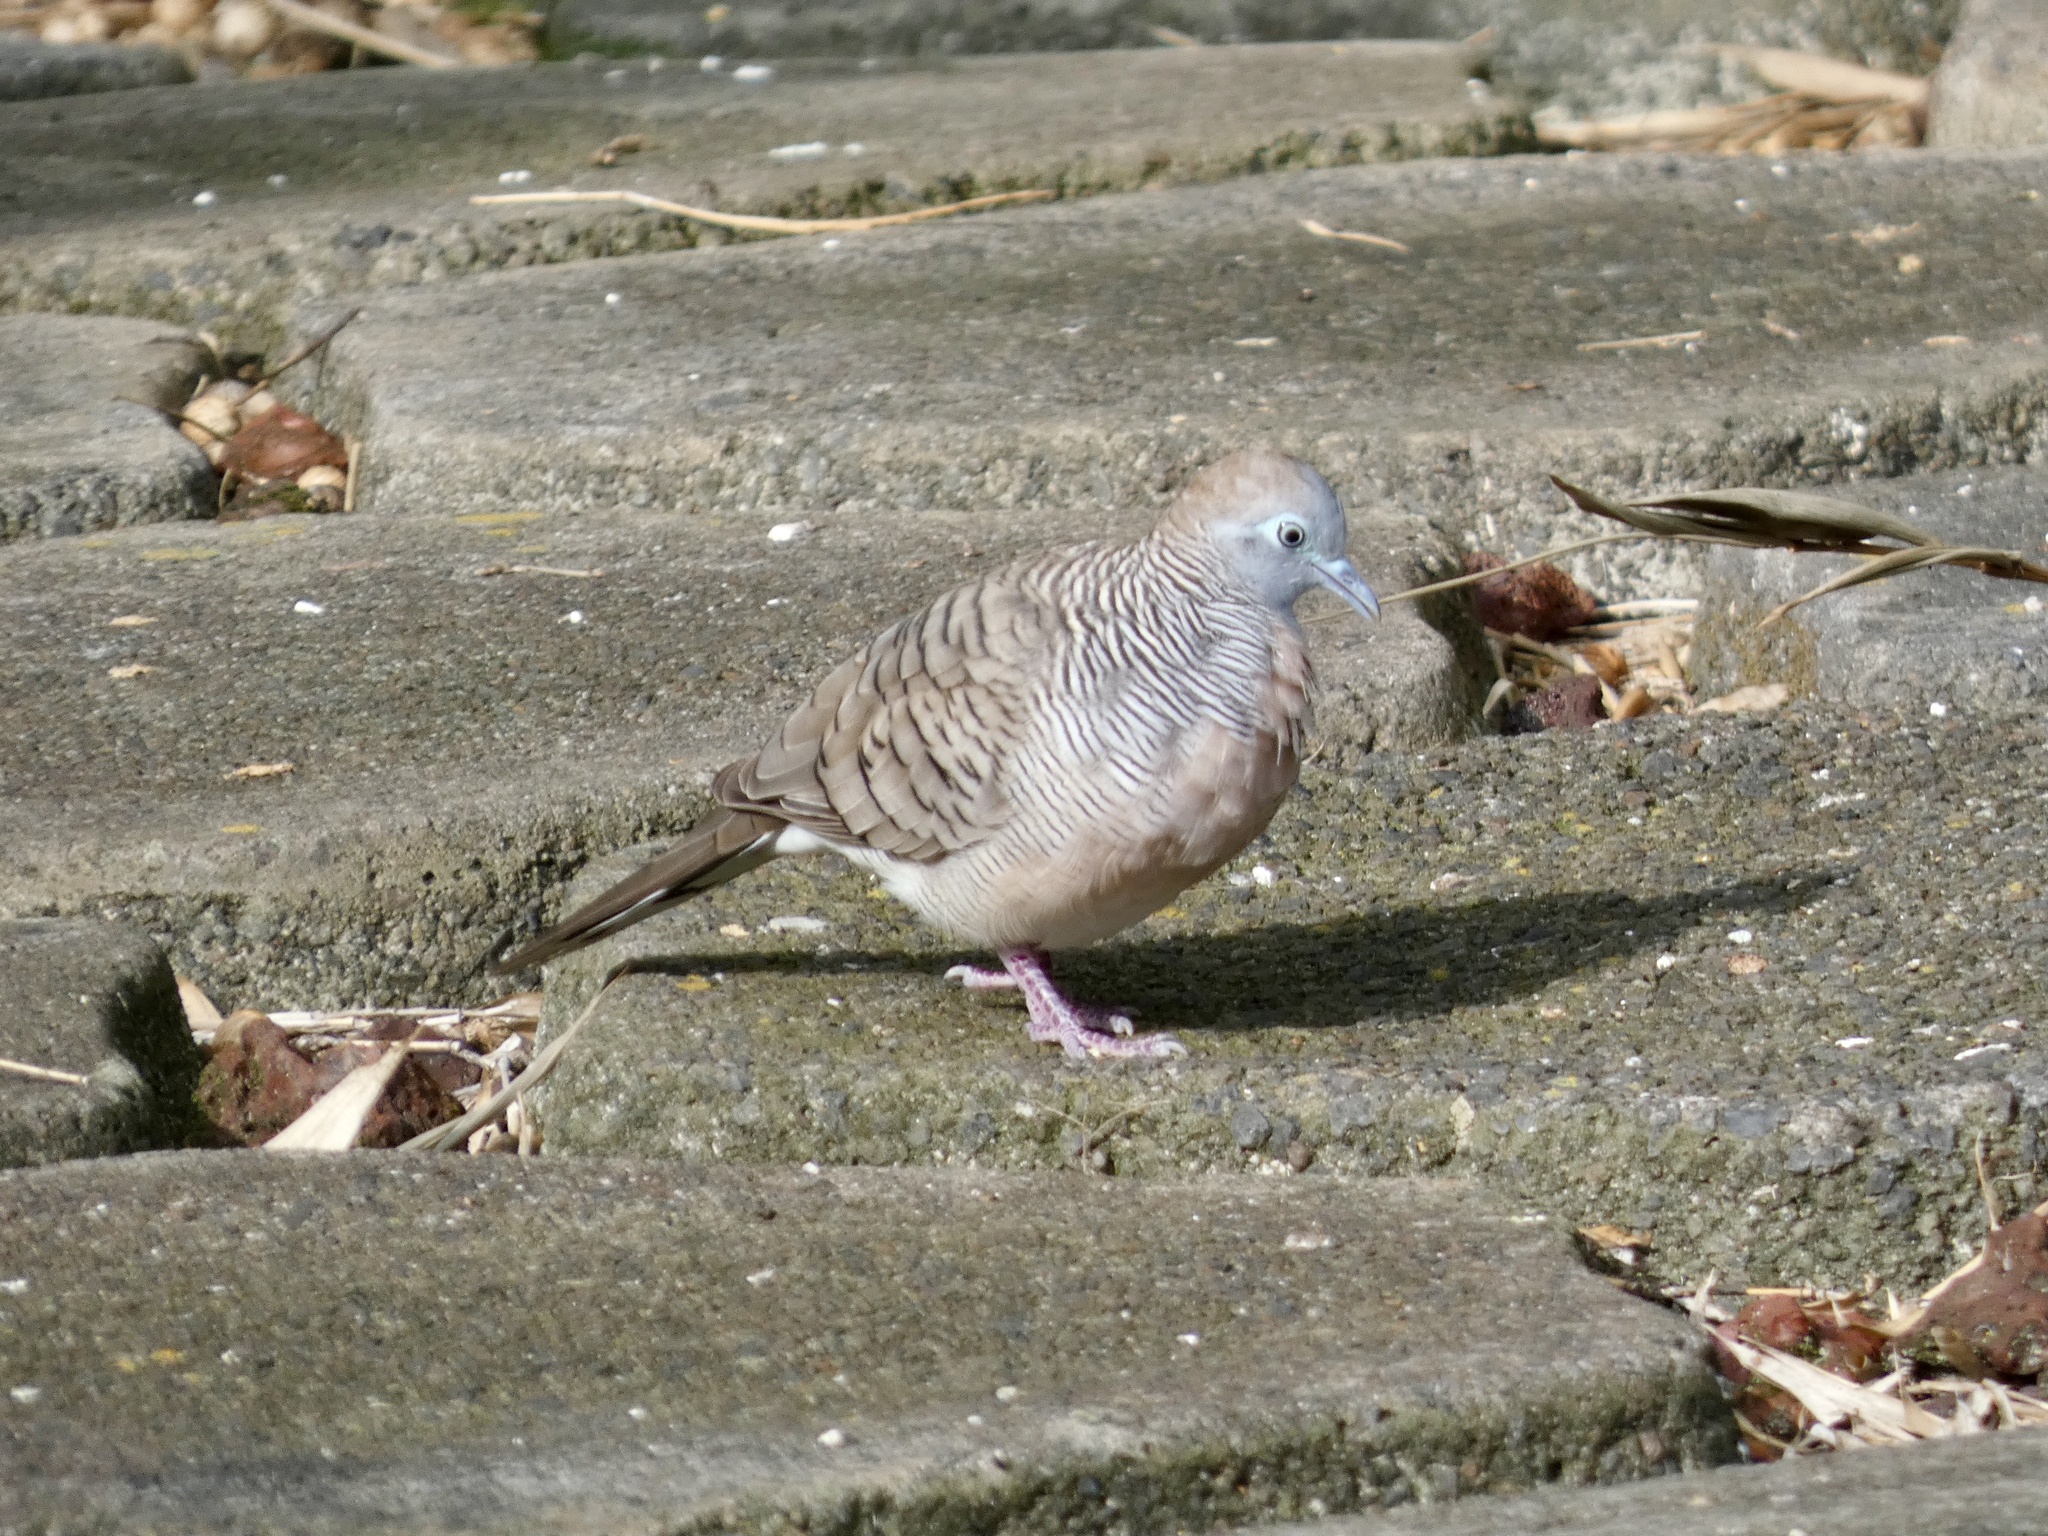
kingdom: Animalia
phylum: Chordata
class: Aves
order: Columbiformes
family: Columbidae
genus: Geopelia
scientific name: Geopelia striata
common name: Zebra dove
